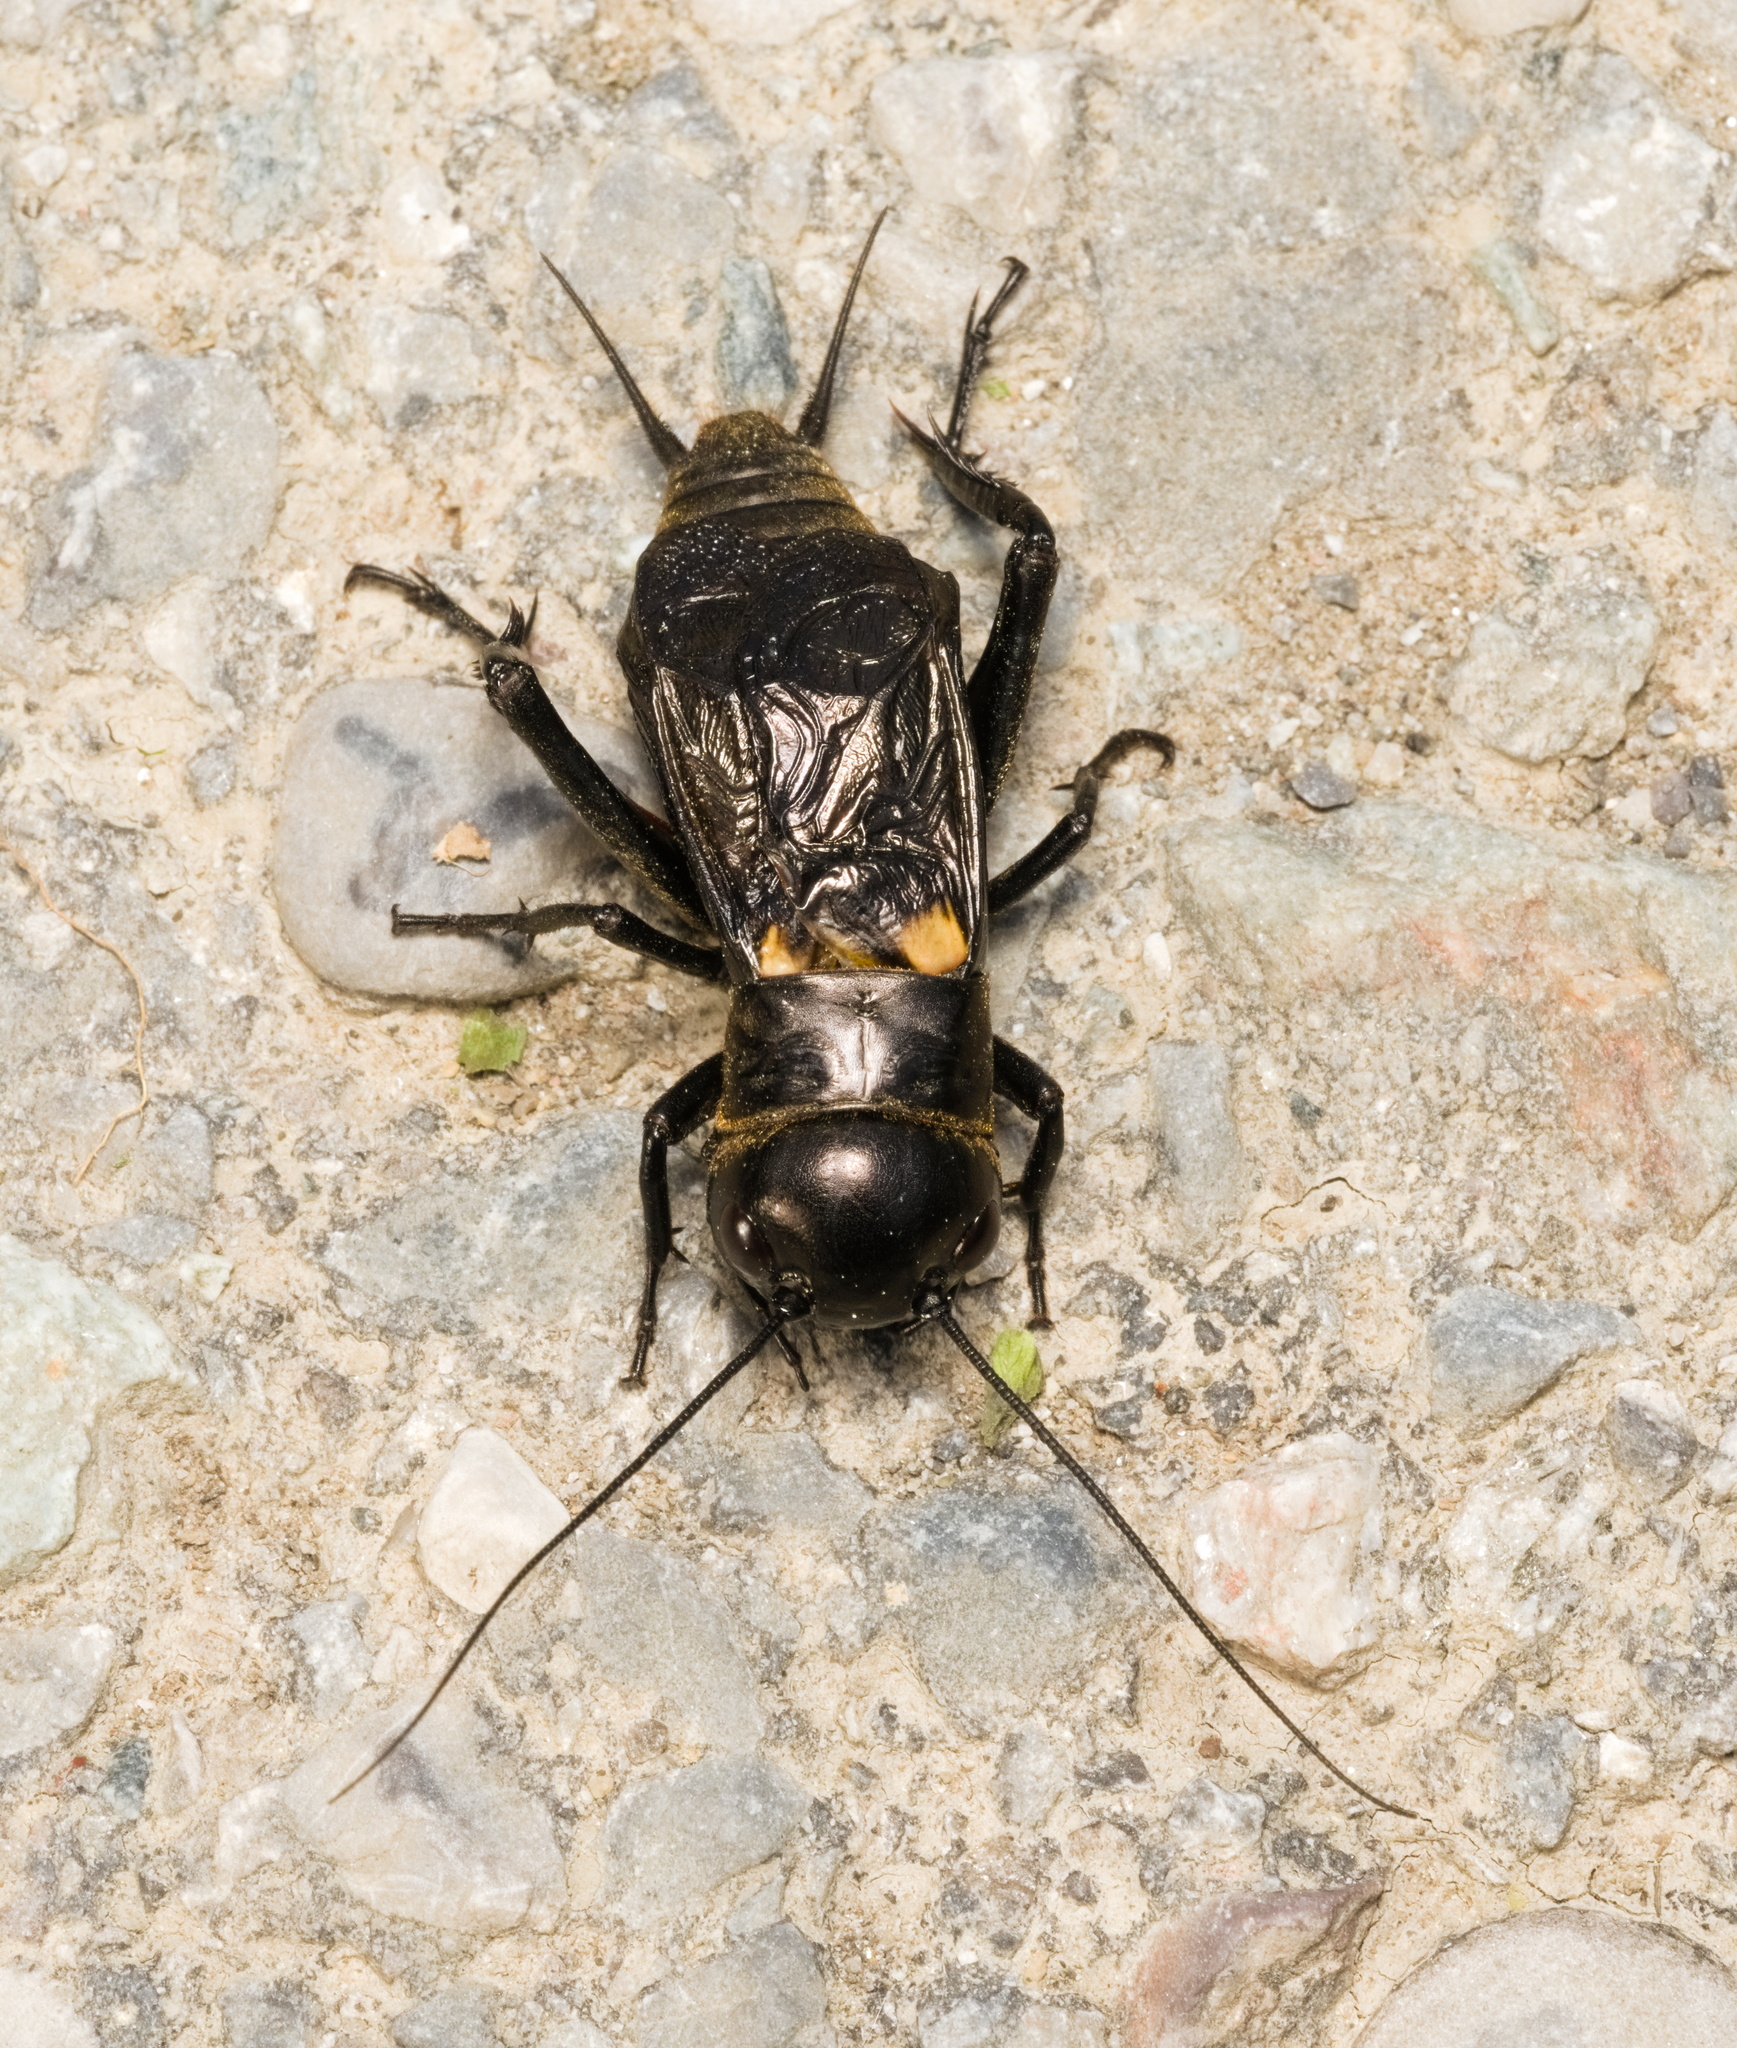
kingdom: Animalia
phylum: Arthropoda
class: Insecta
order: Orthoptera
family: Gryllidae
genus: Gryllus
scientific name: Gryllus campestris
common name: Field cricket
